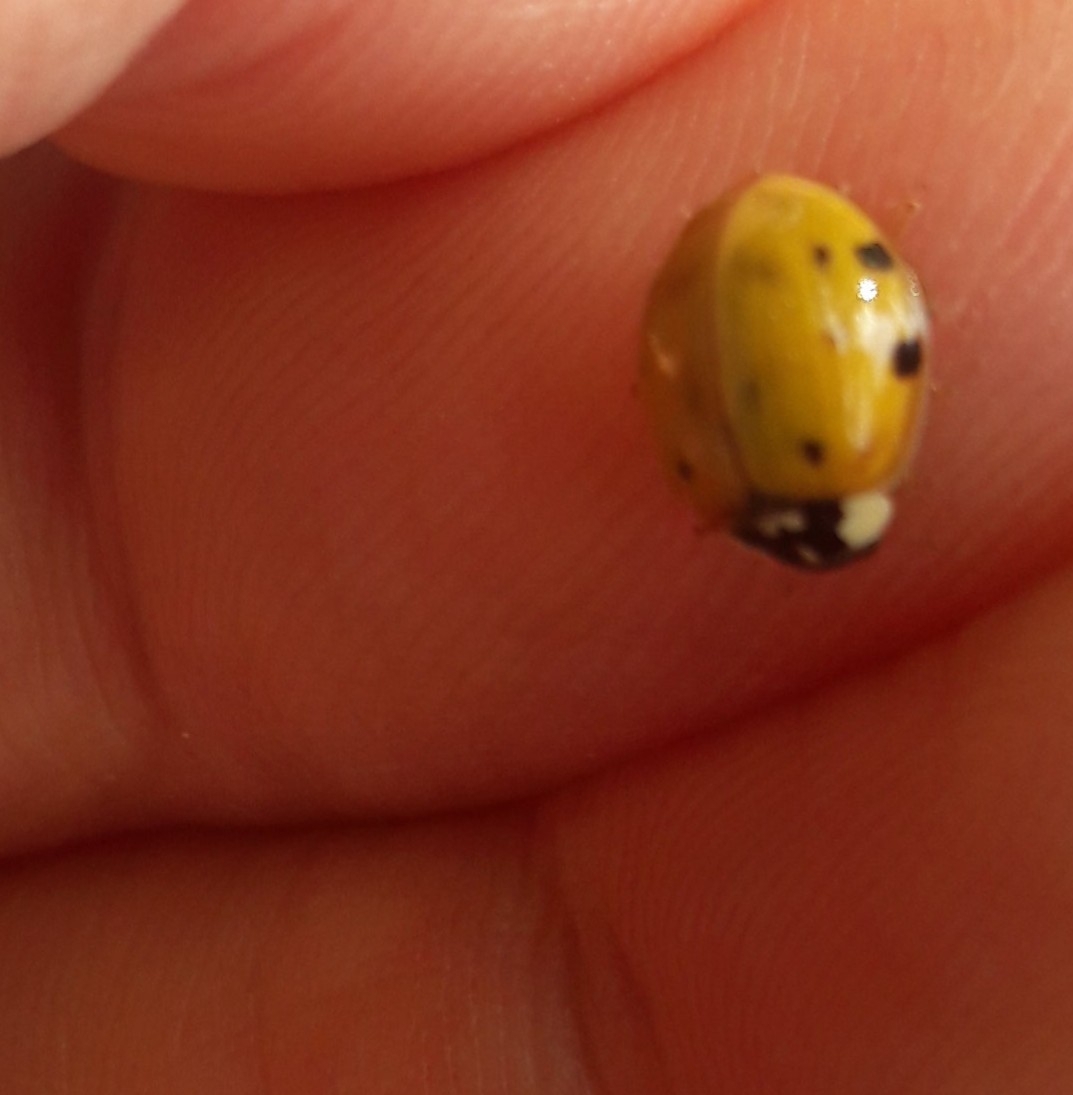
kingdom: Animalia
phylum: Arthropoda
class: Insecta
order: Coleoptera
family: Coccinellidae
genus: Harmonia
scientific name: Harmonia axyridis
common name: Harlequin ladybird
